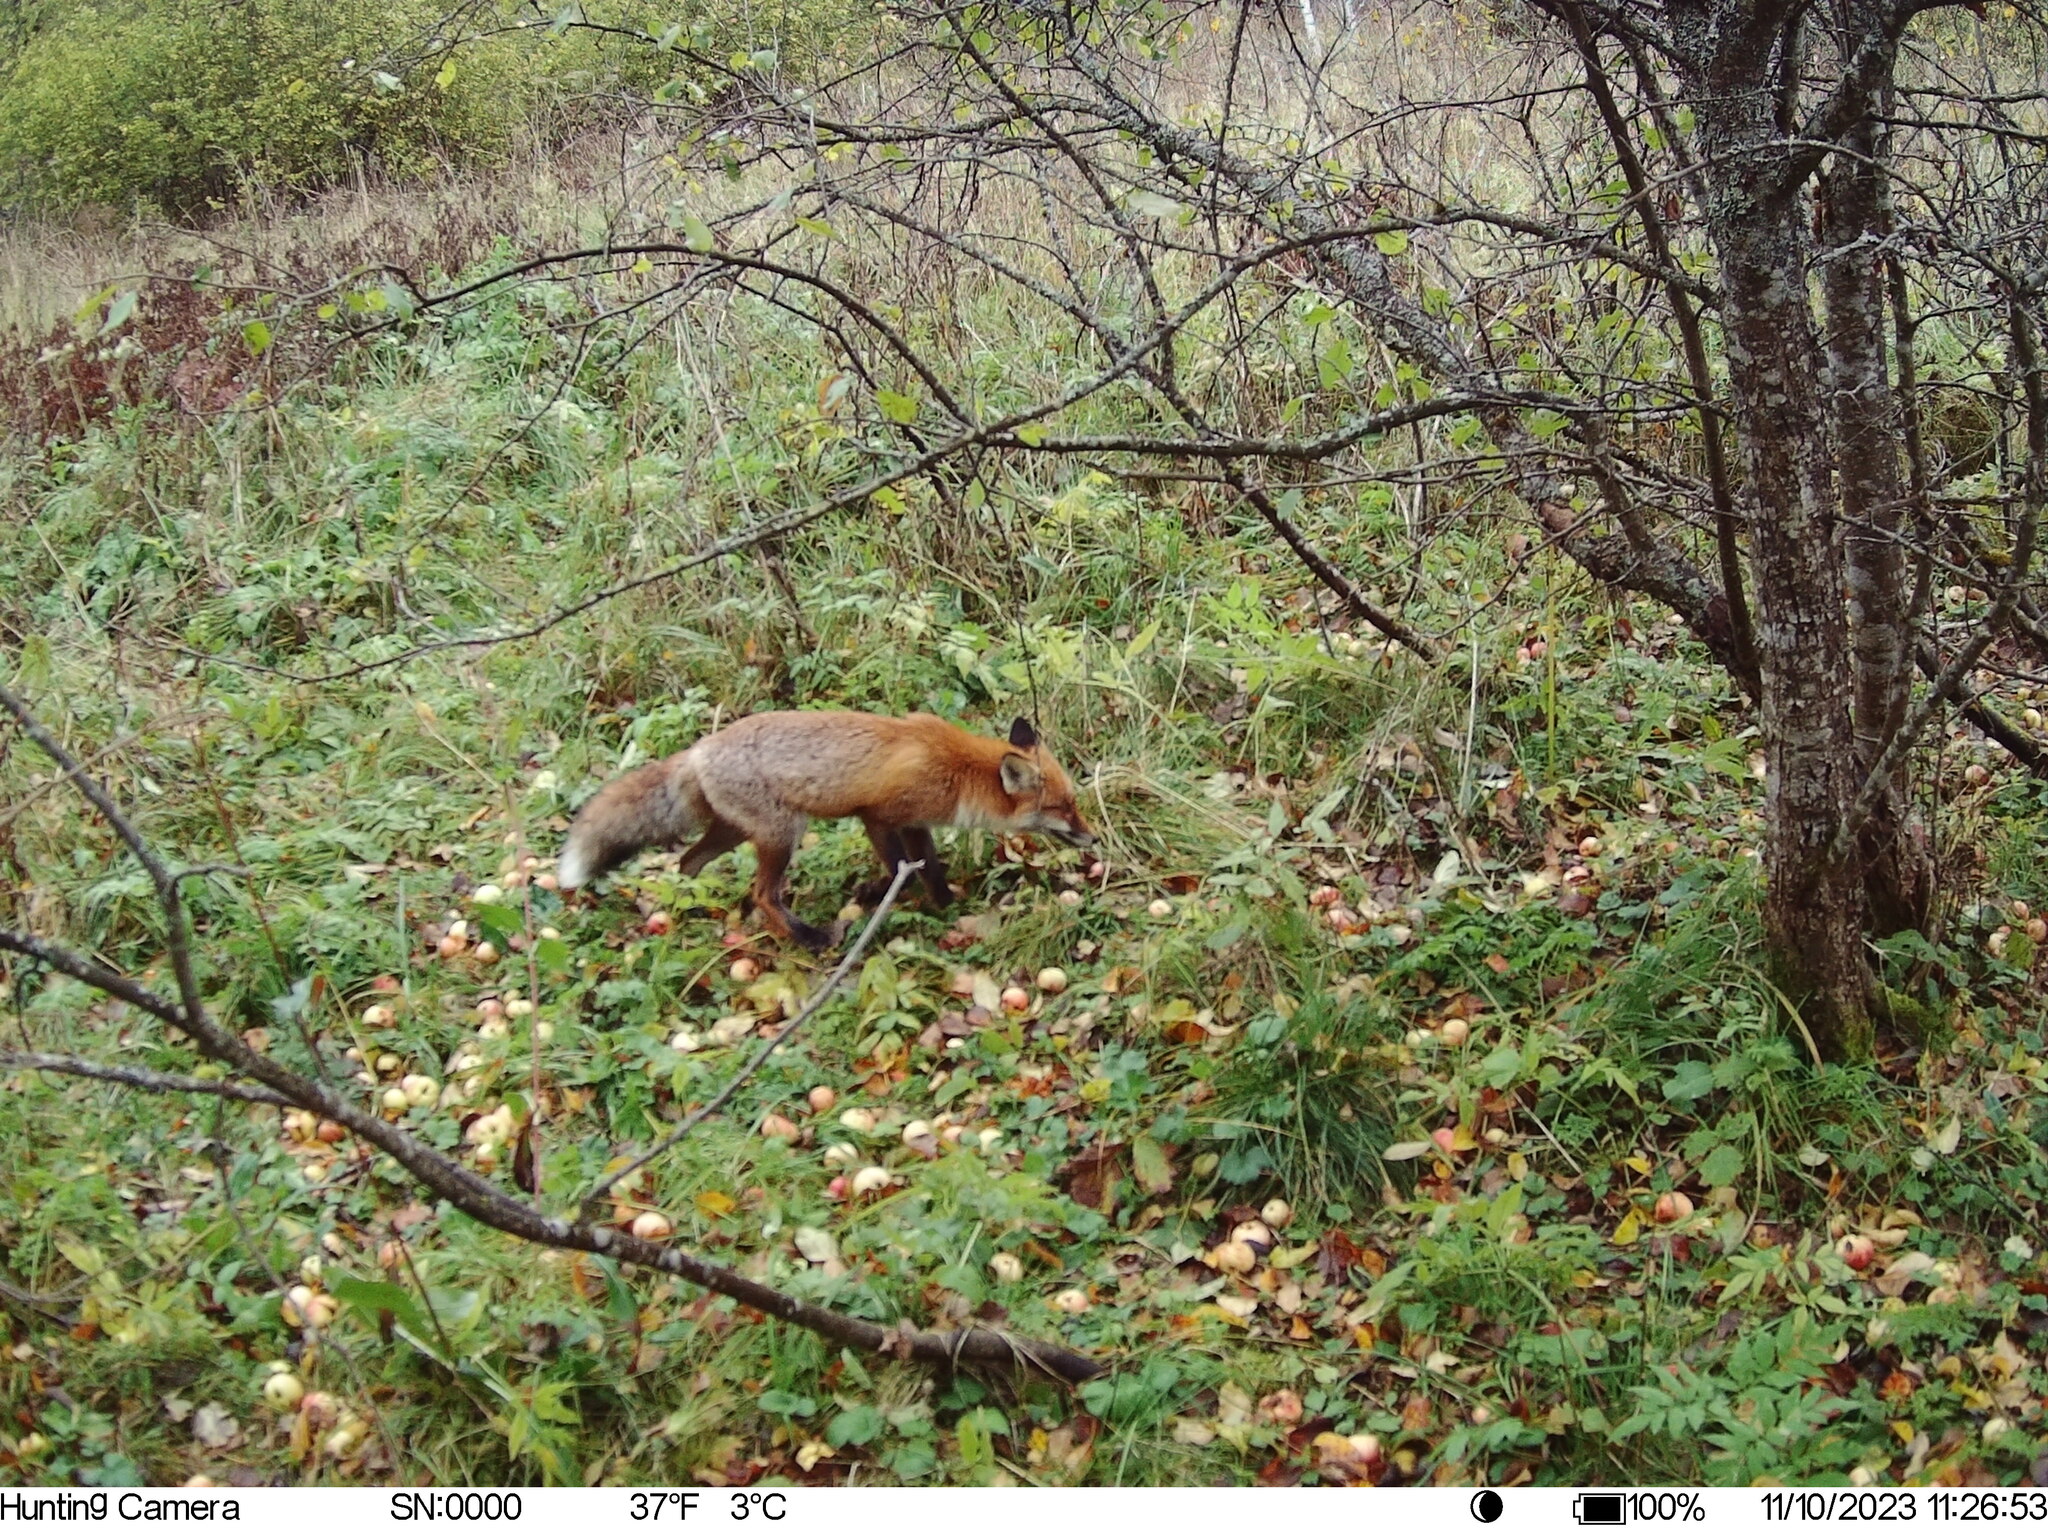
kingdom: Animalia
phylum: Chordata
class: Mammalia
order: Carnivora
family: Canidae
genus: Vulpes
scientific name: Vulpes vulpes
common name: Red fox
